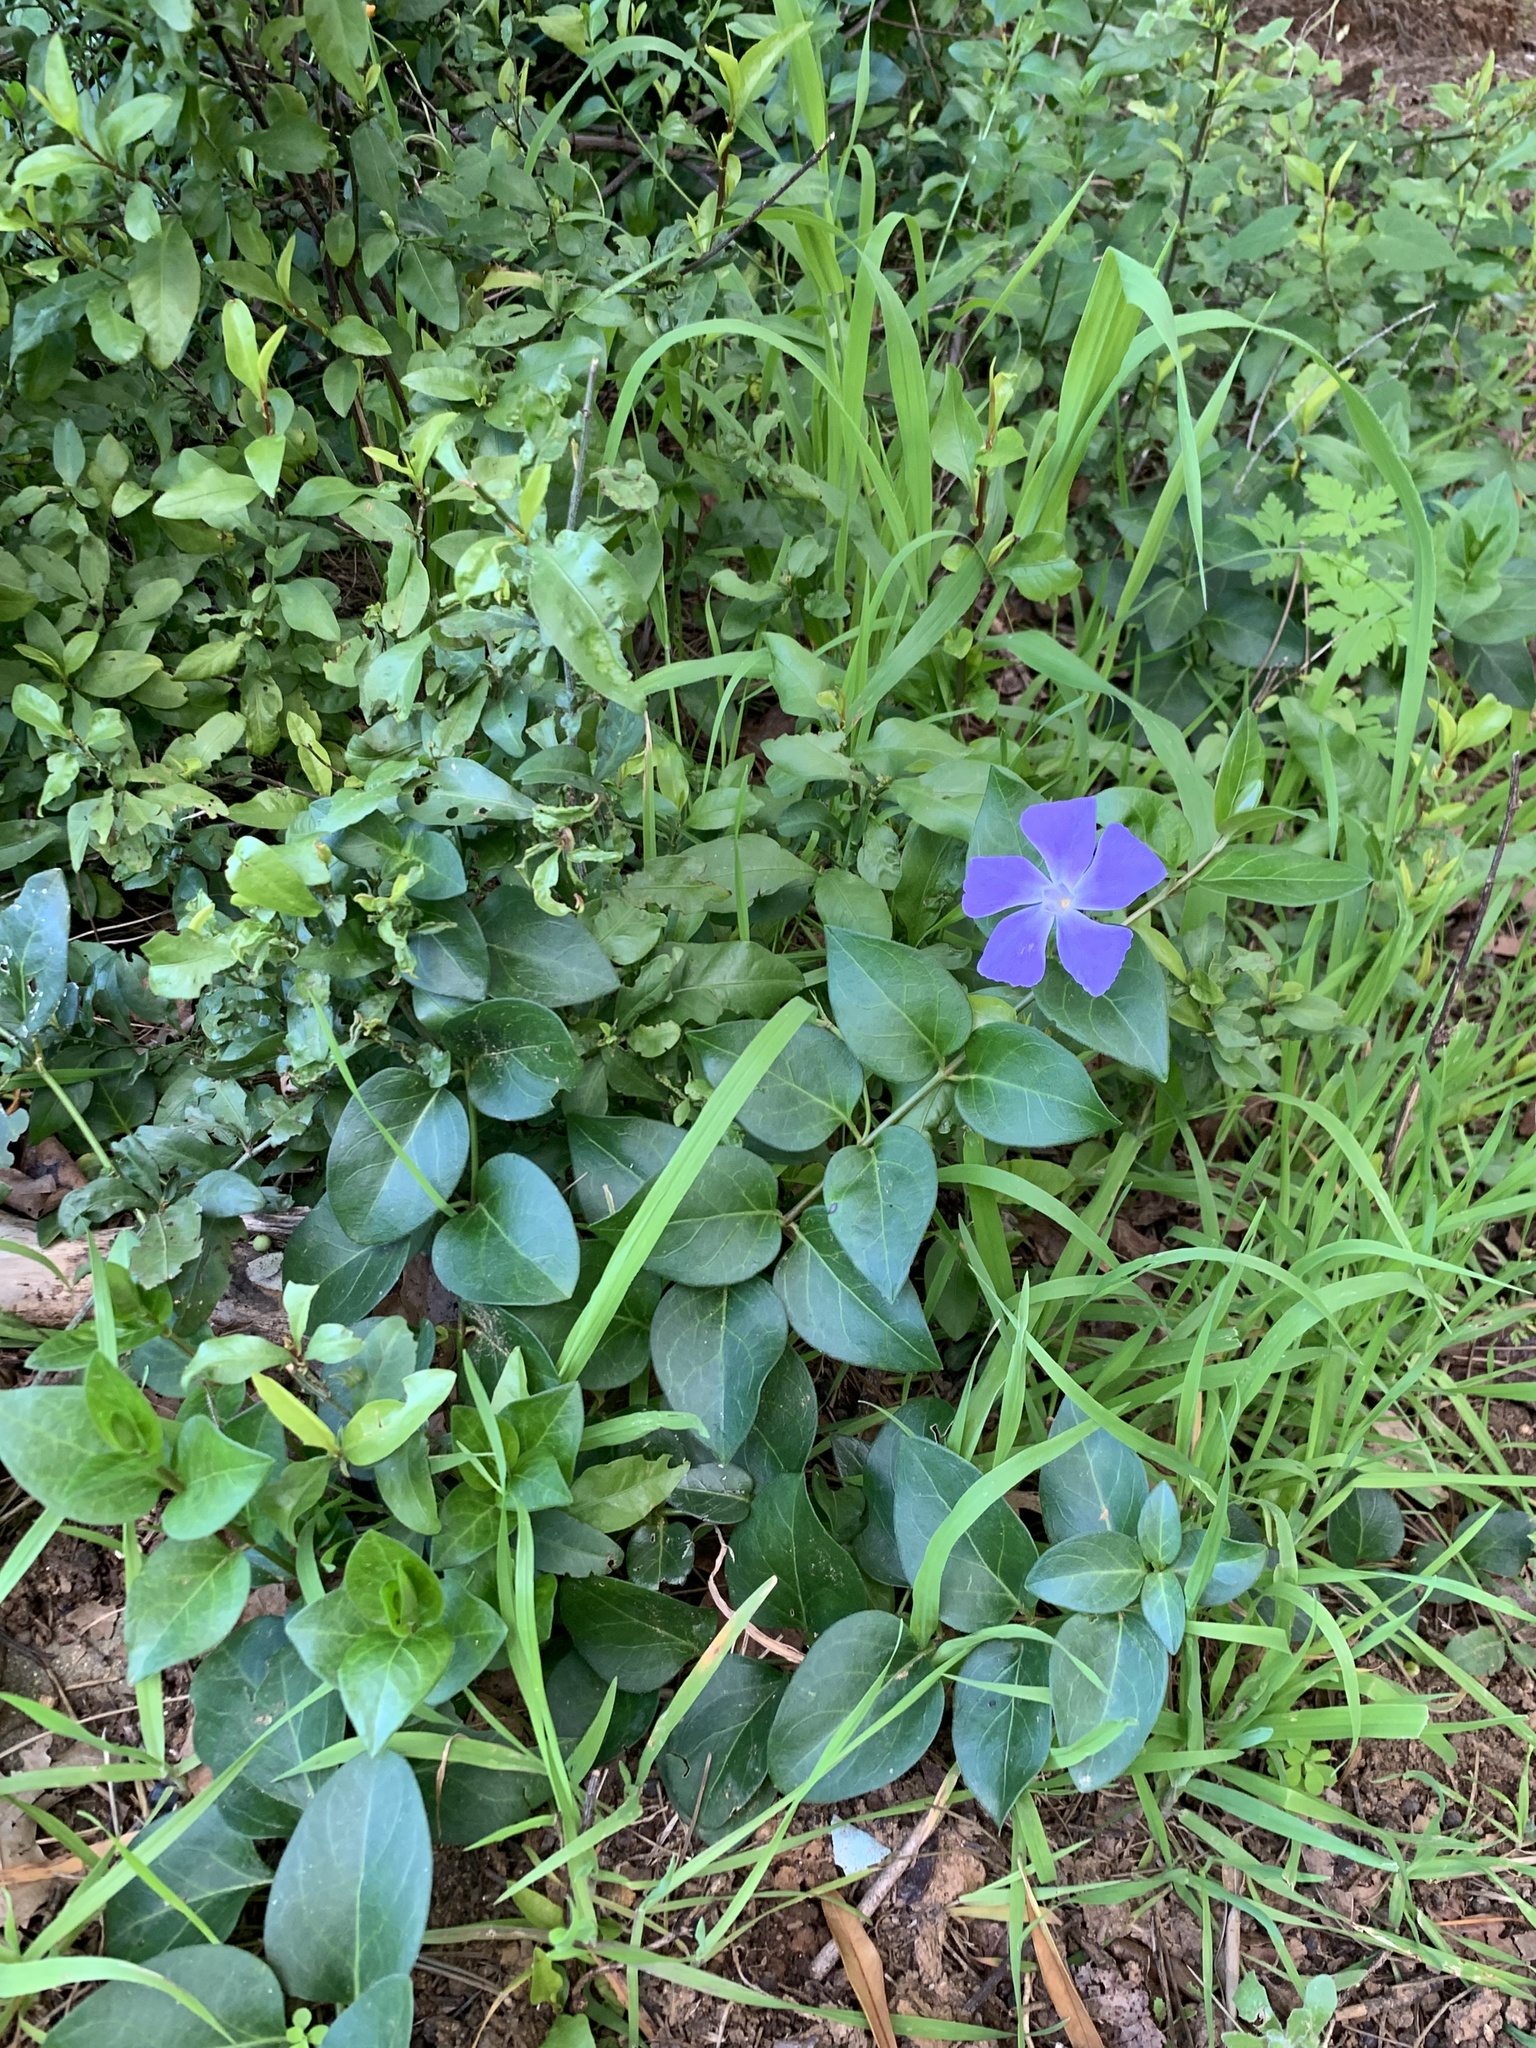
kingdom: Plantae
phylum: Tracheophyta
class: Magnoliopsida
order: Gentianales
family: Apocynaceae
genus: Vinca
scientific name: Vinca major
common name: Greater periwinkle
